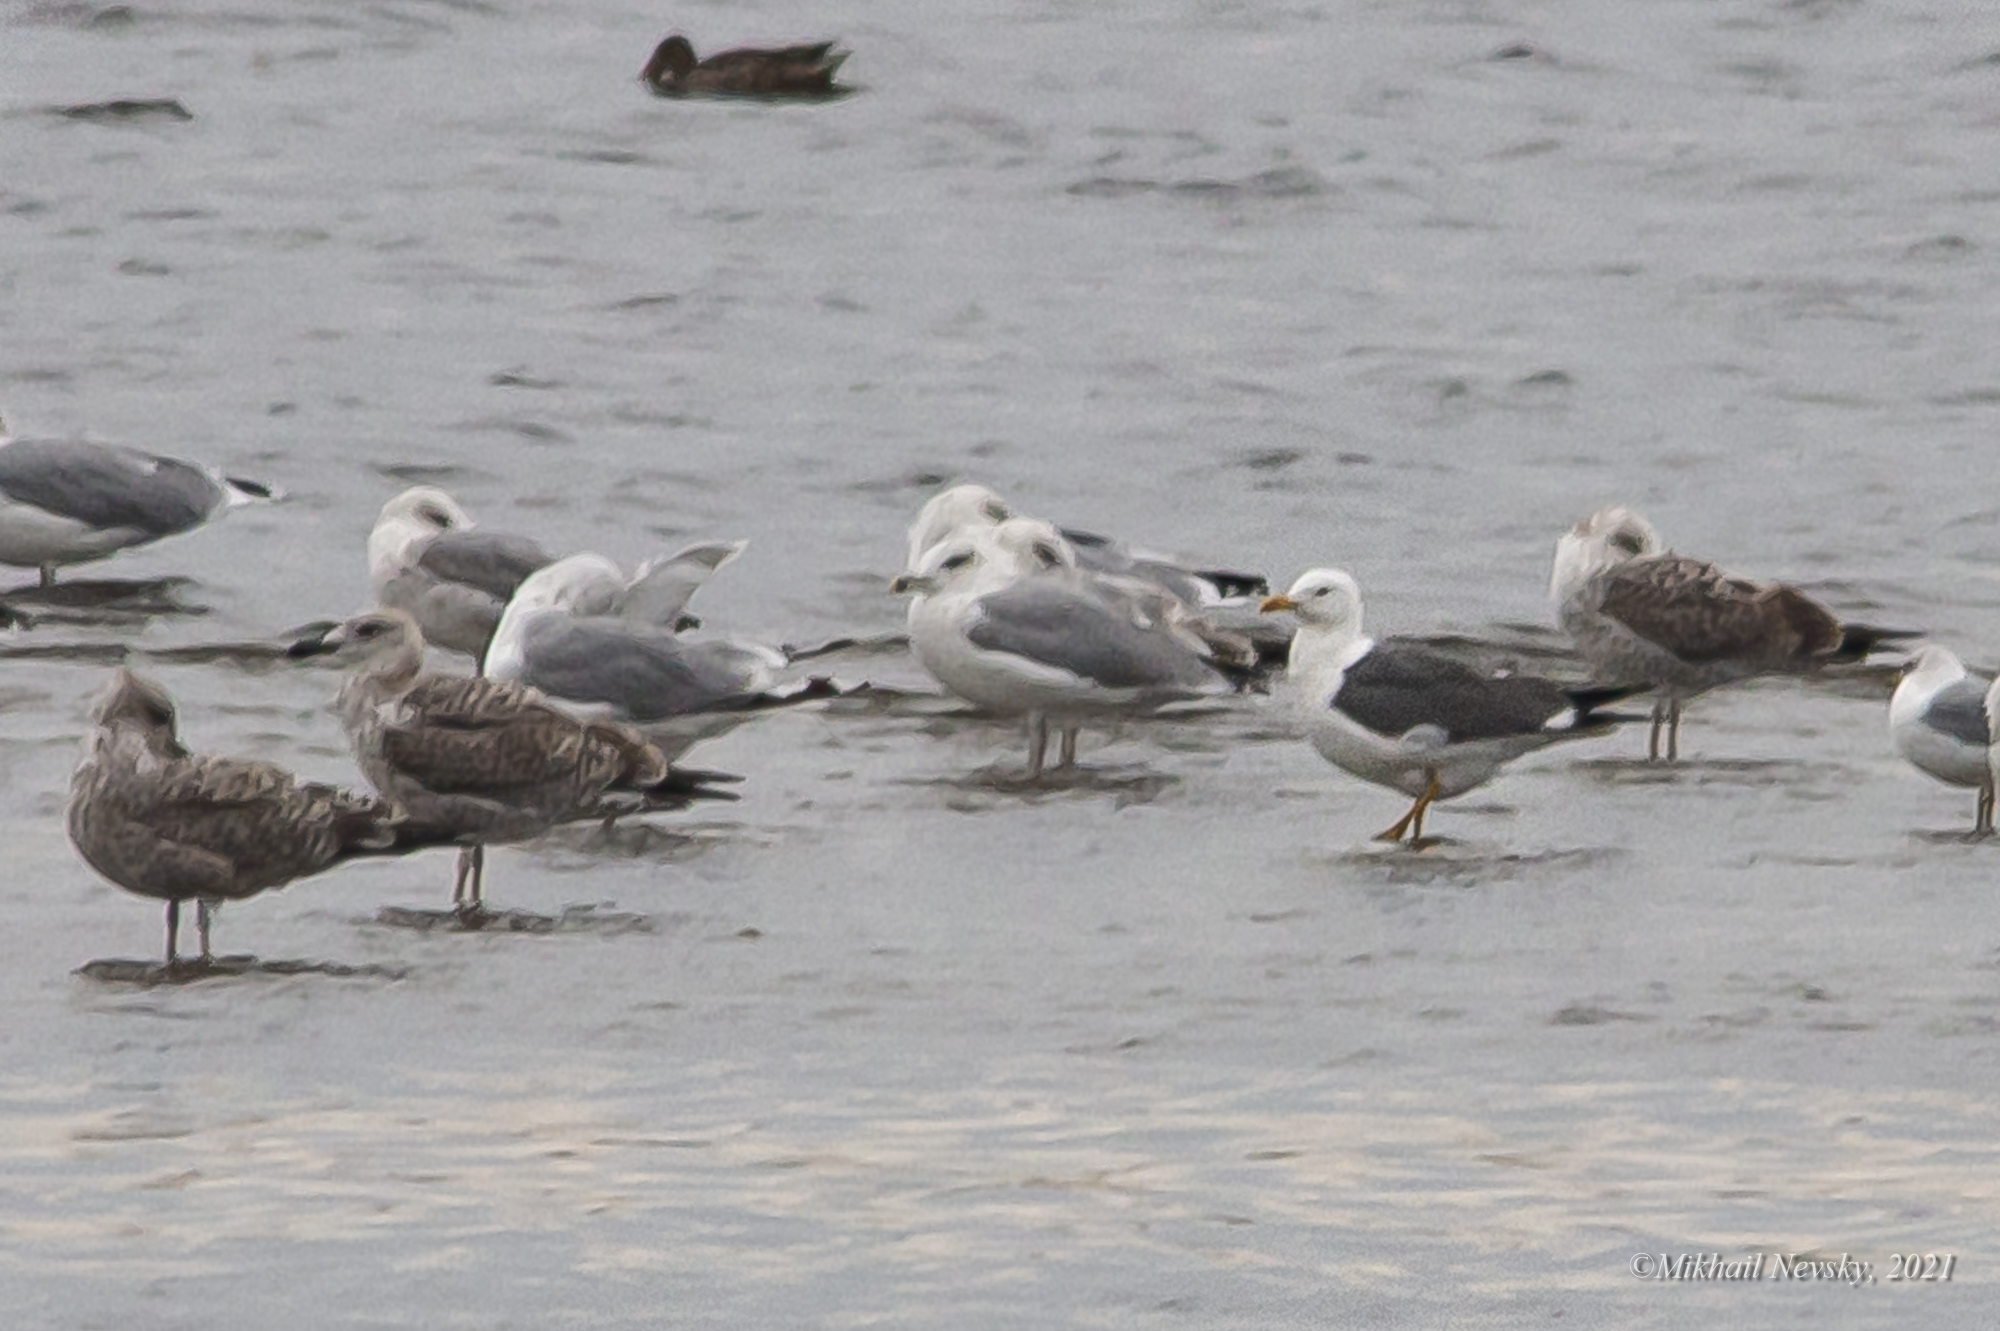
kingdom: Animalia
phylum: Chordata
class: Aves
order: Charadriiformes
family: Laridae
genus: Larus
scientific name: Larus fuscus
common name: Lesser black-backed gull
